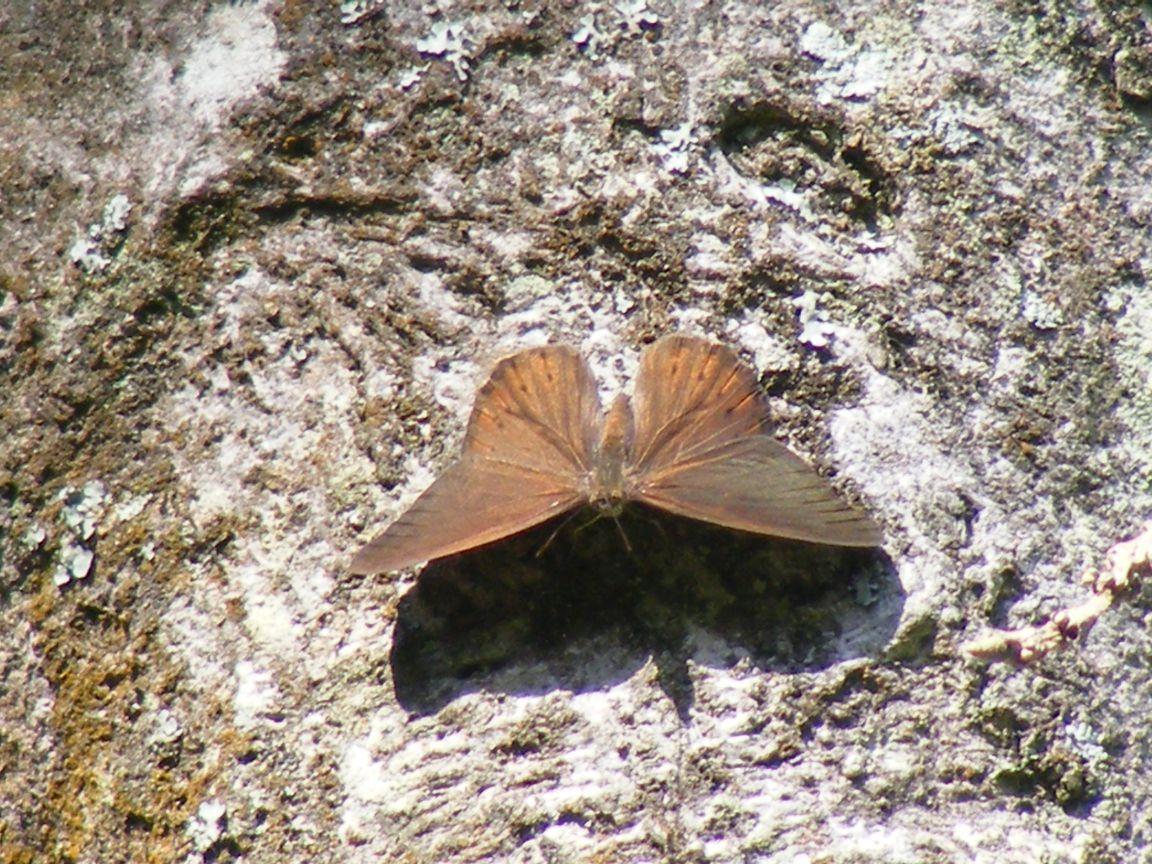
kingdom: Animalia
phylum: Arthropoda
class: Insecta
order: Lepidoptera
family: Nymphalidae
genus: Asterope
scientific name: Asterope boisduvali
